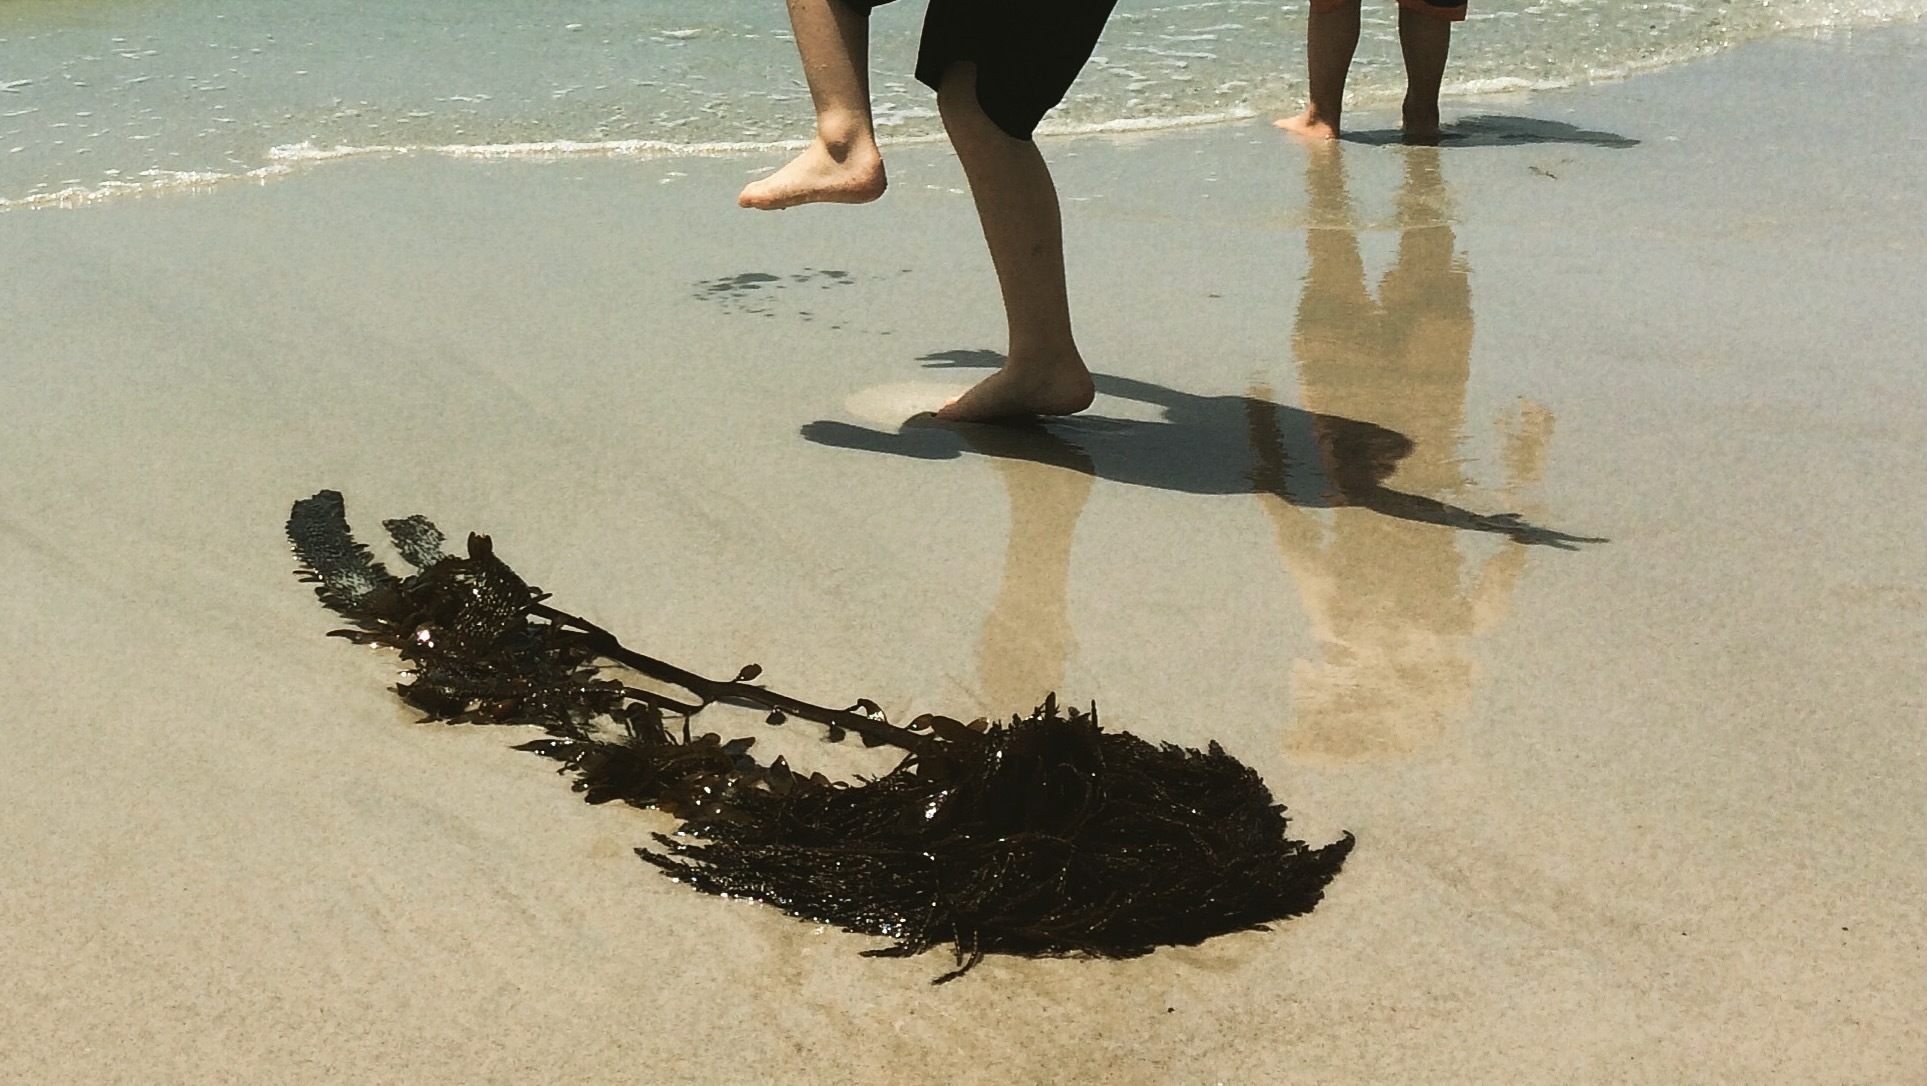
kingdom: Chromista
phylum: Ochrophyta
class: Phaeophyceae
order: Laminariales
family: Lessoniaceae
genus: Egregia
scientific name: Egregia menziesii
